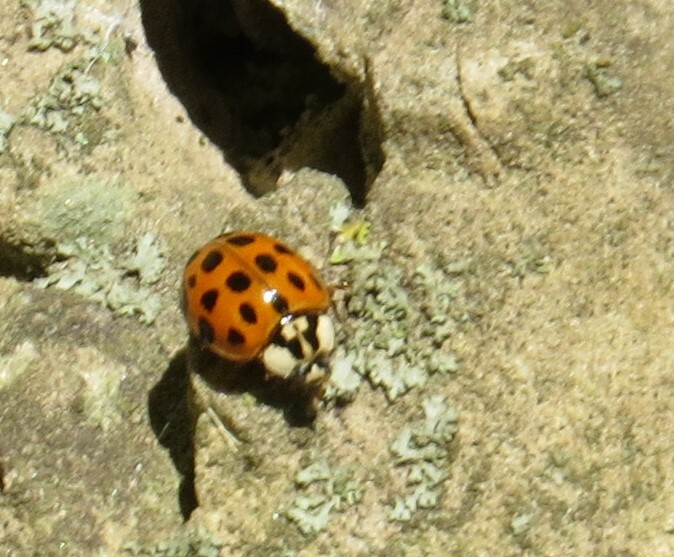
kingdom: Animalia
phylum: Arthropoda
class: Insecta
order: Coleoptera
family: Coccinellidae
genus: Harmonia
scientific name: Harmonia axyridis
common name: Harlequin ladybird
